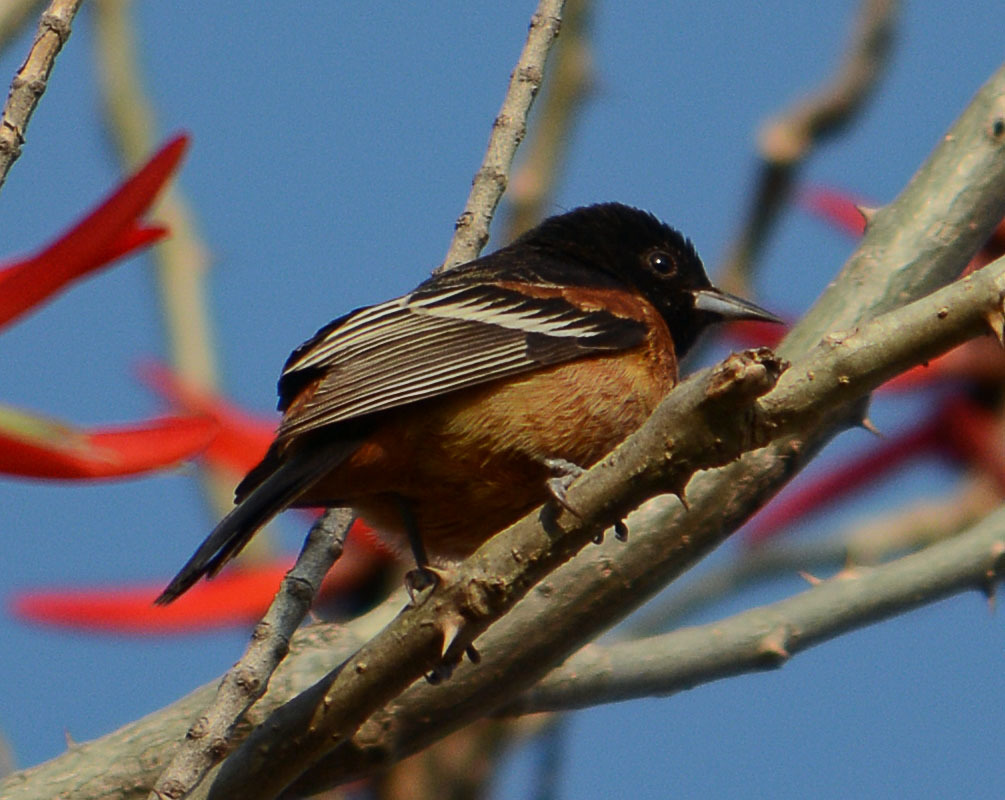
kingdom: Animalia
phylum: Chordata
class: Aves
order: Passeriformes
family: Icteridae
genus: Icterus
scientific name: Icterus spurius
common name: Orchard oriole
